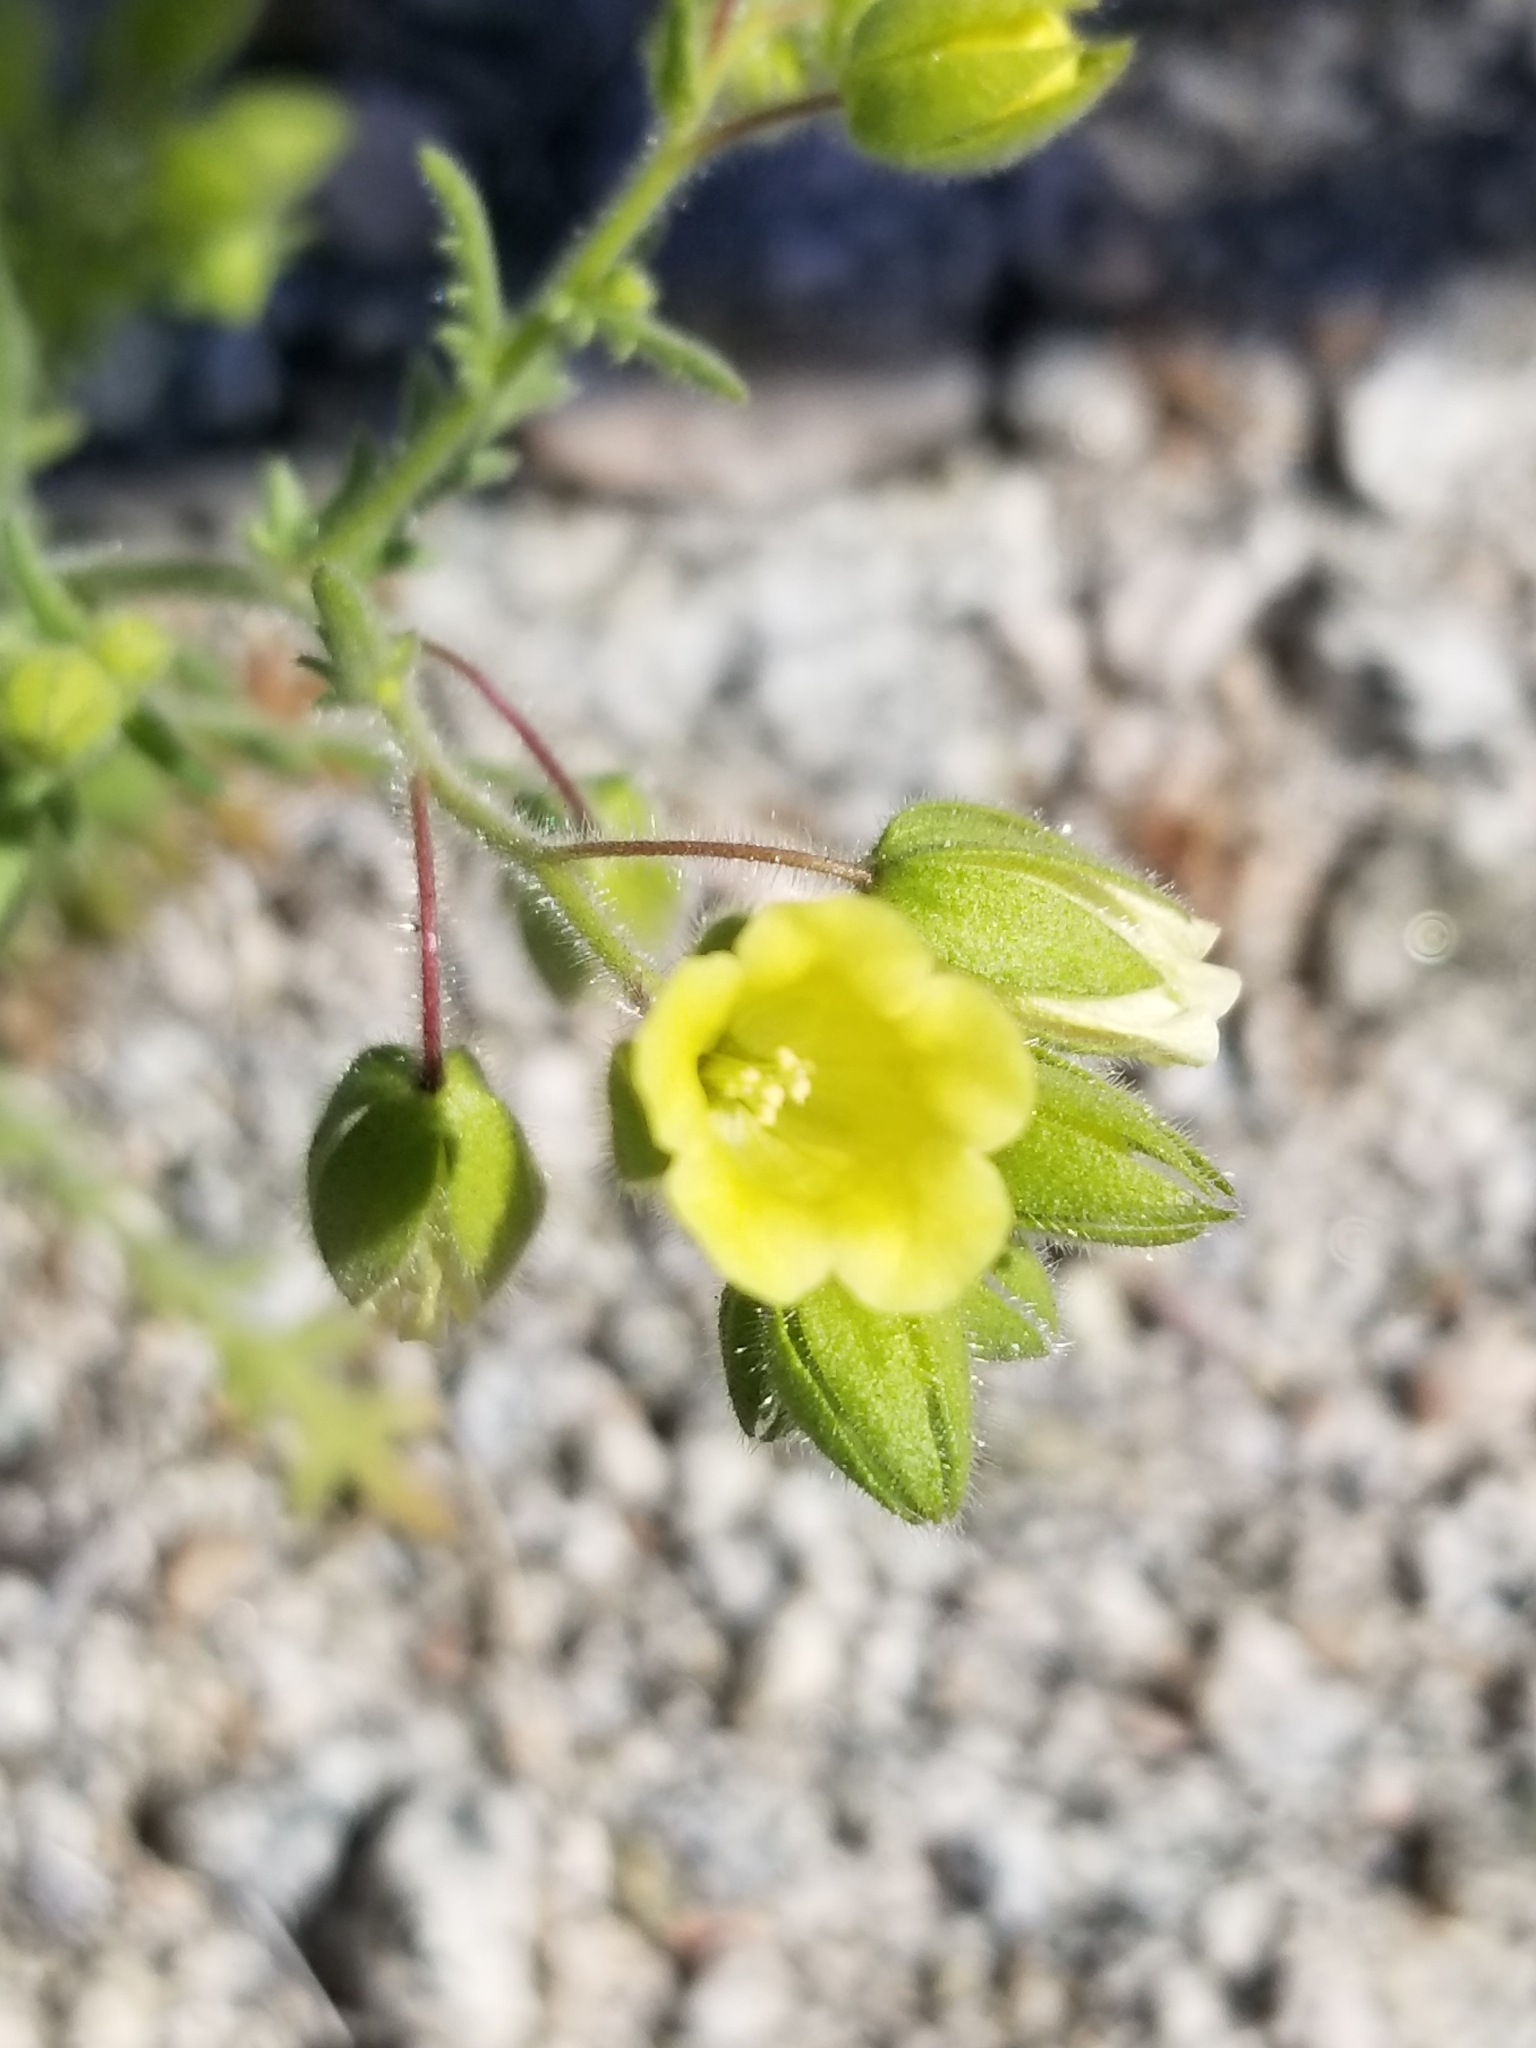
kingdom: Plantae
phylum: Tracheophyta
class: Magnoliopsida
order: Boraginales
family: Hydrophyllaceae
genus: Emmenanthe
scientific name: Emmenanthe penduliflora
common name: Whispering-bells
